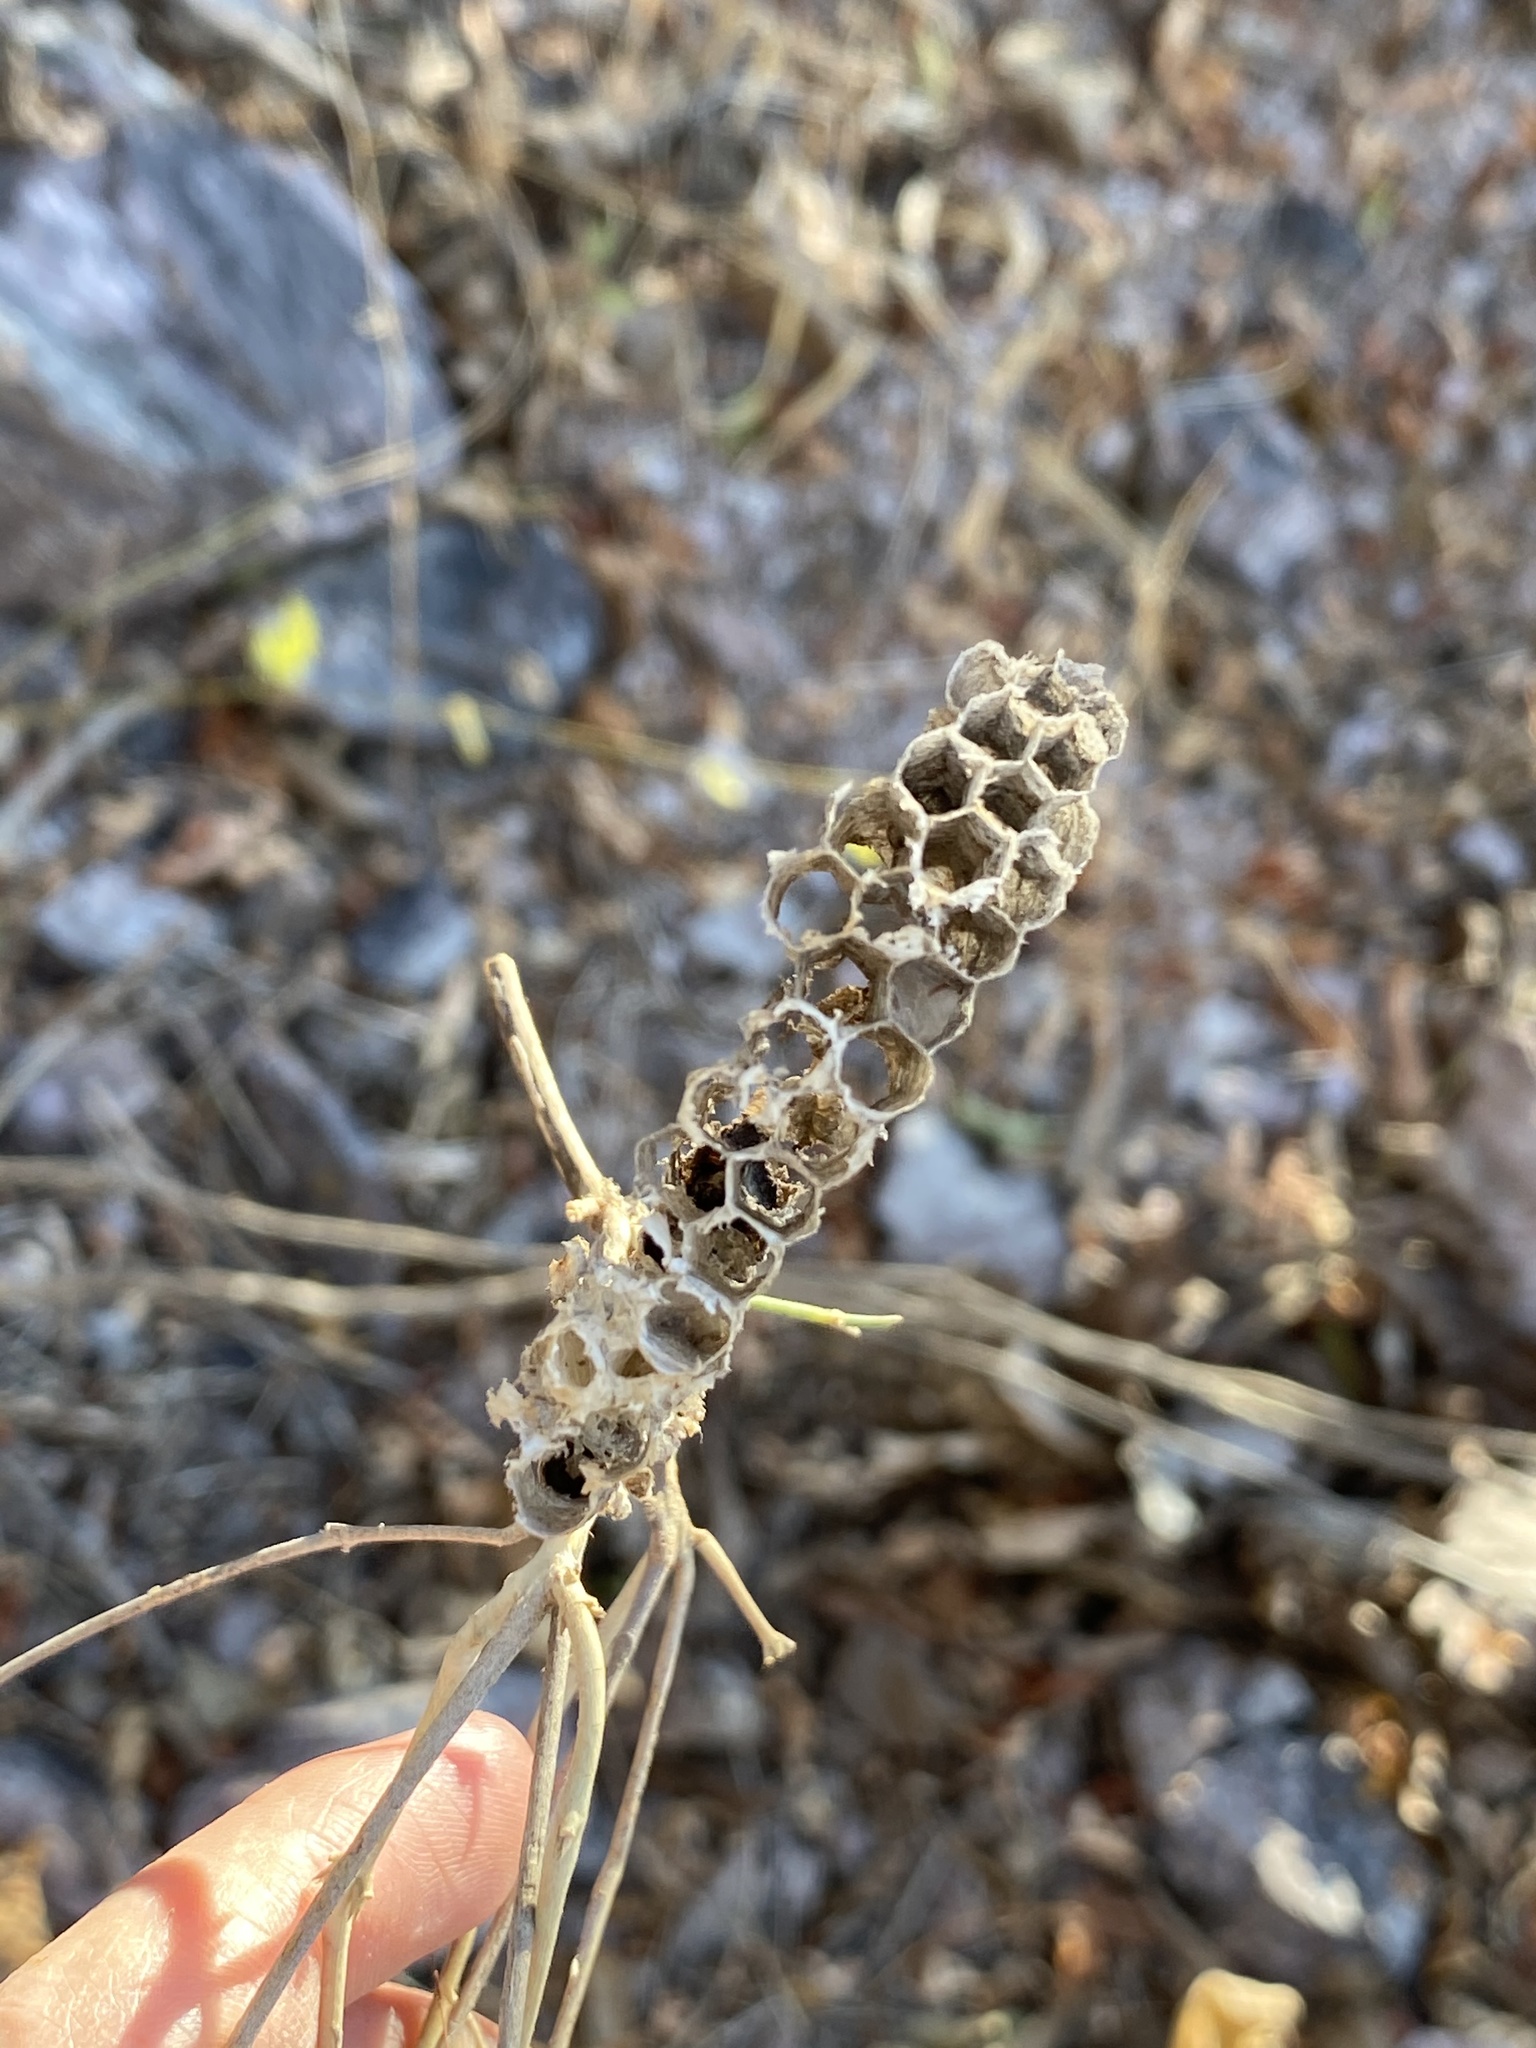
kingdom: Animalia
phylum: Arthropoda
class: Insecta
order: Hymenoptera
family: Vespidae
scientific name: Vespidae
